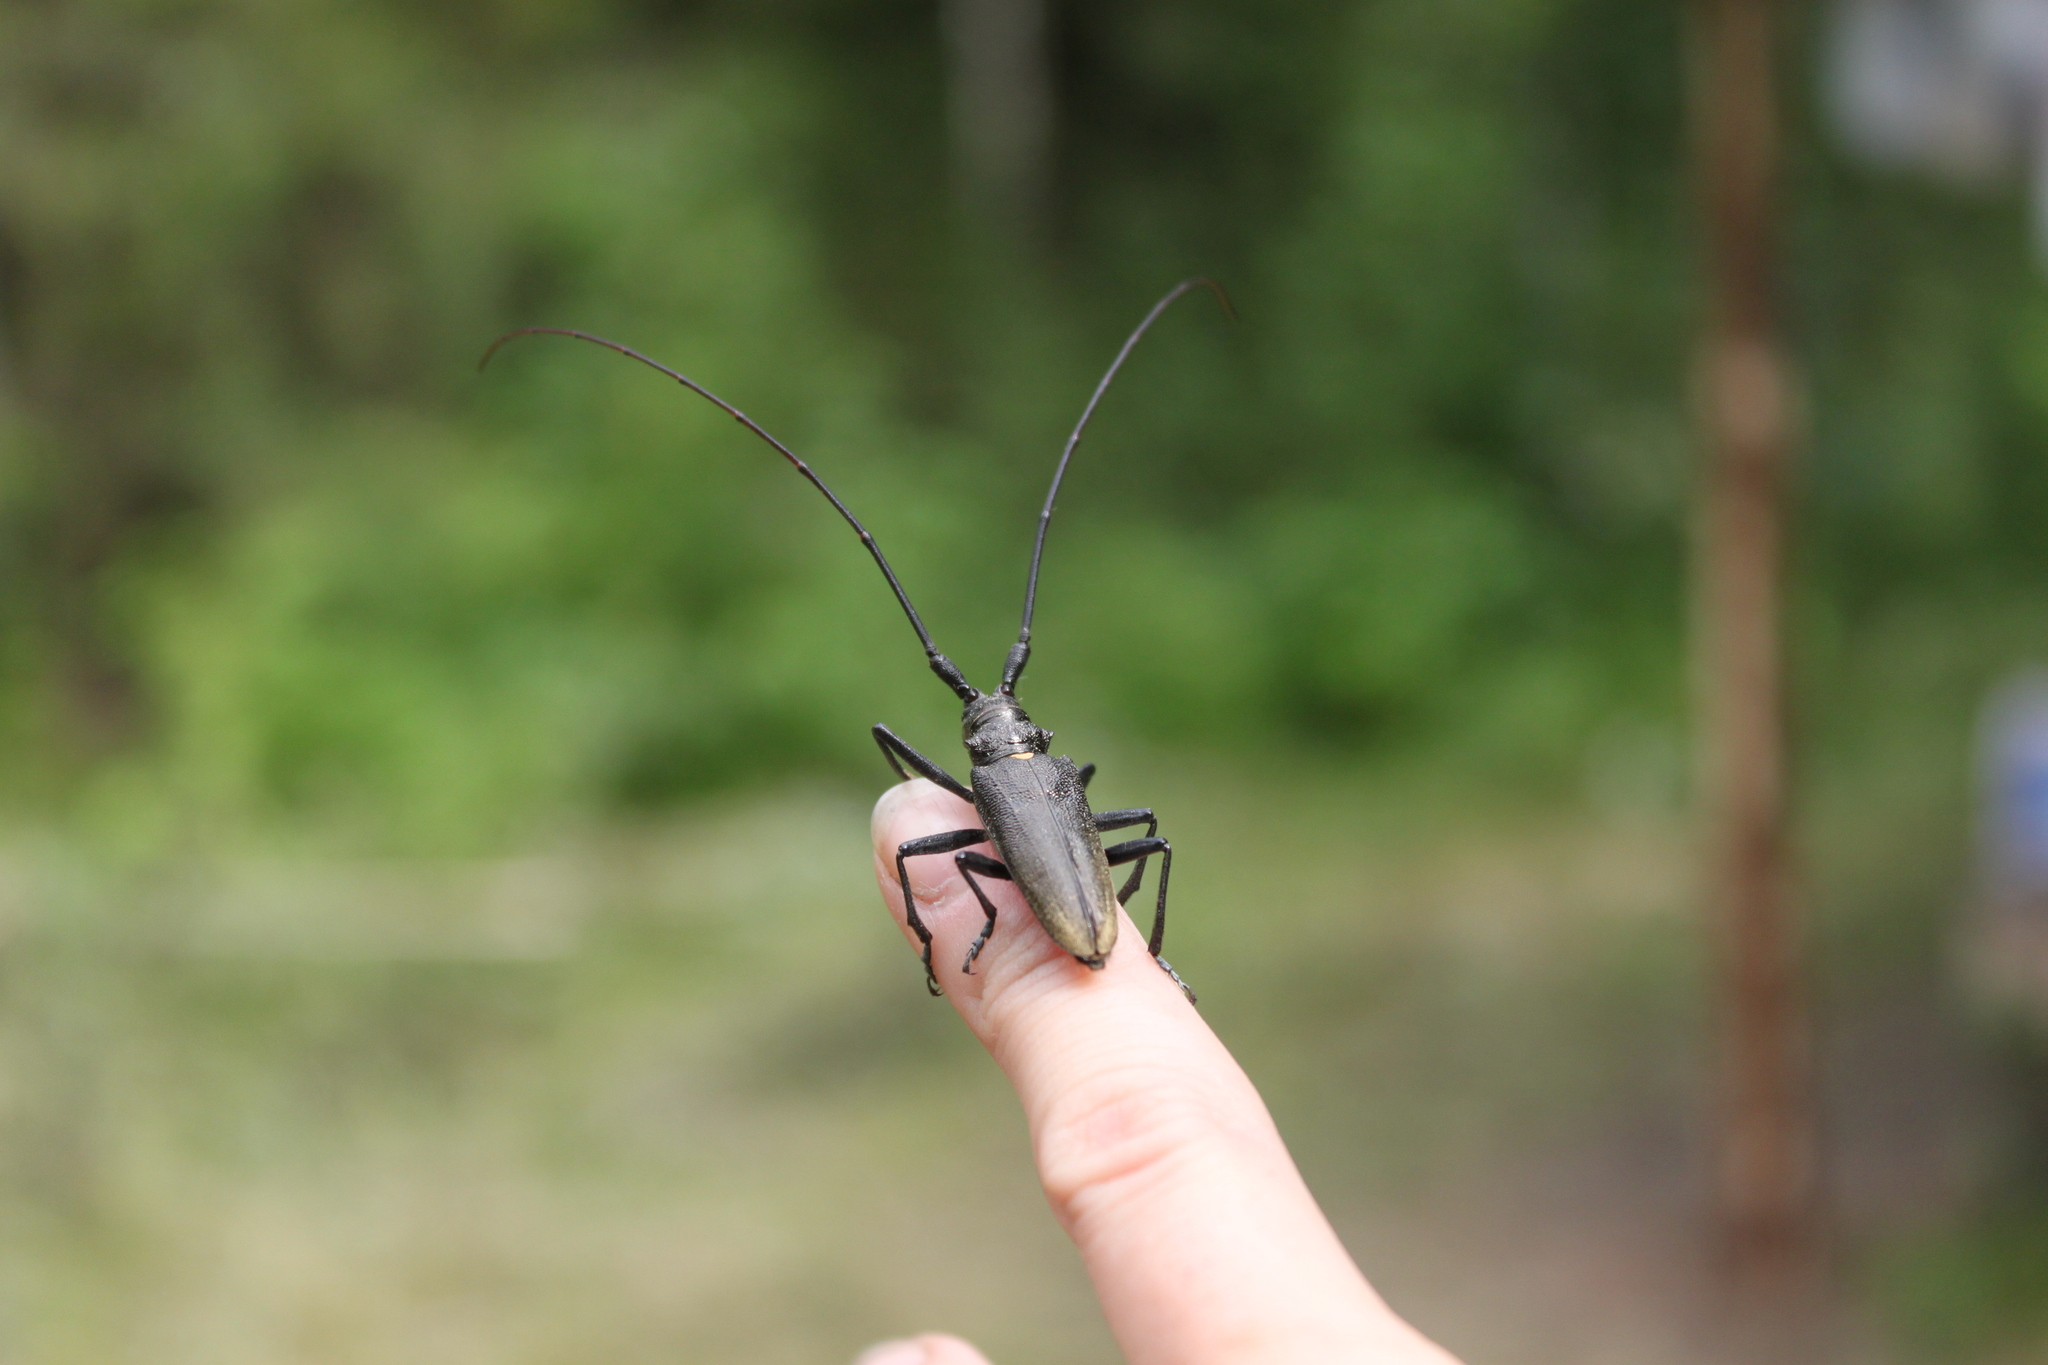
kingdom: Animalia
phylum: Arthropoda
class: Insecta
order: Coleoptera
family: Cerambycidae
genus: Monochamus
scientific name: Monochamus urussovii
